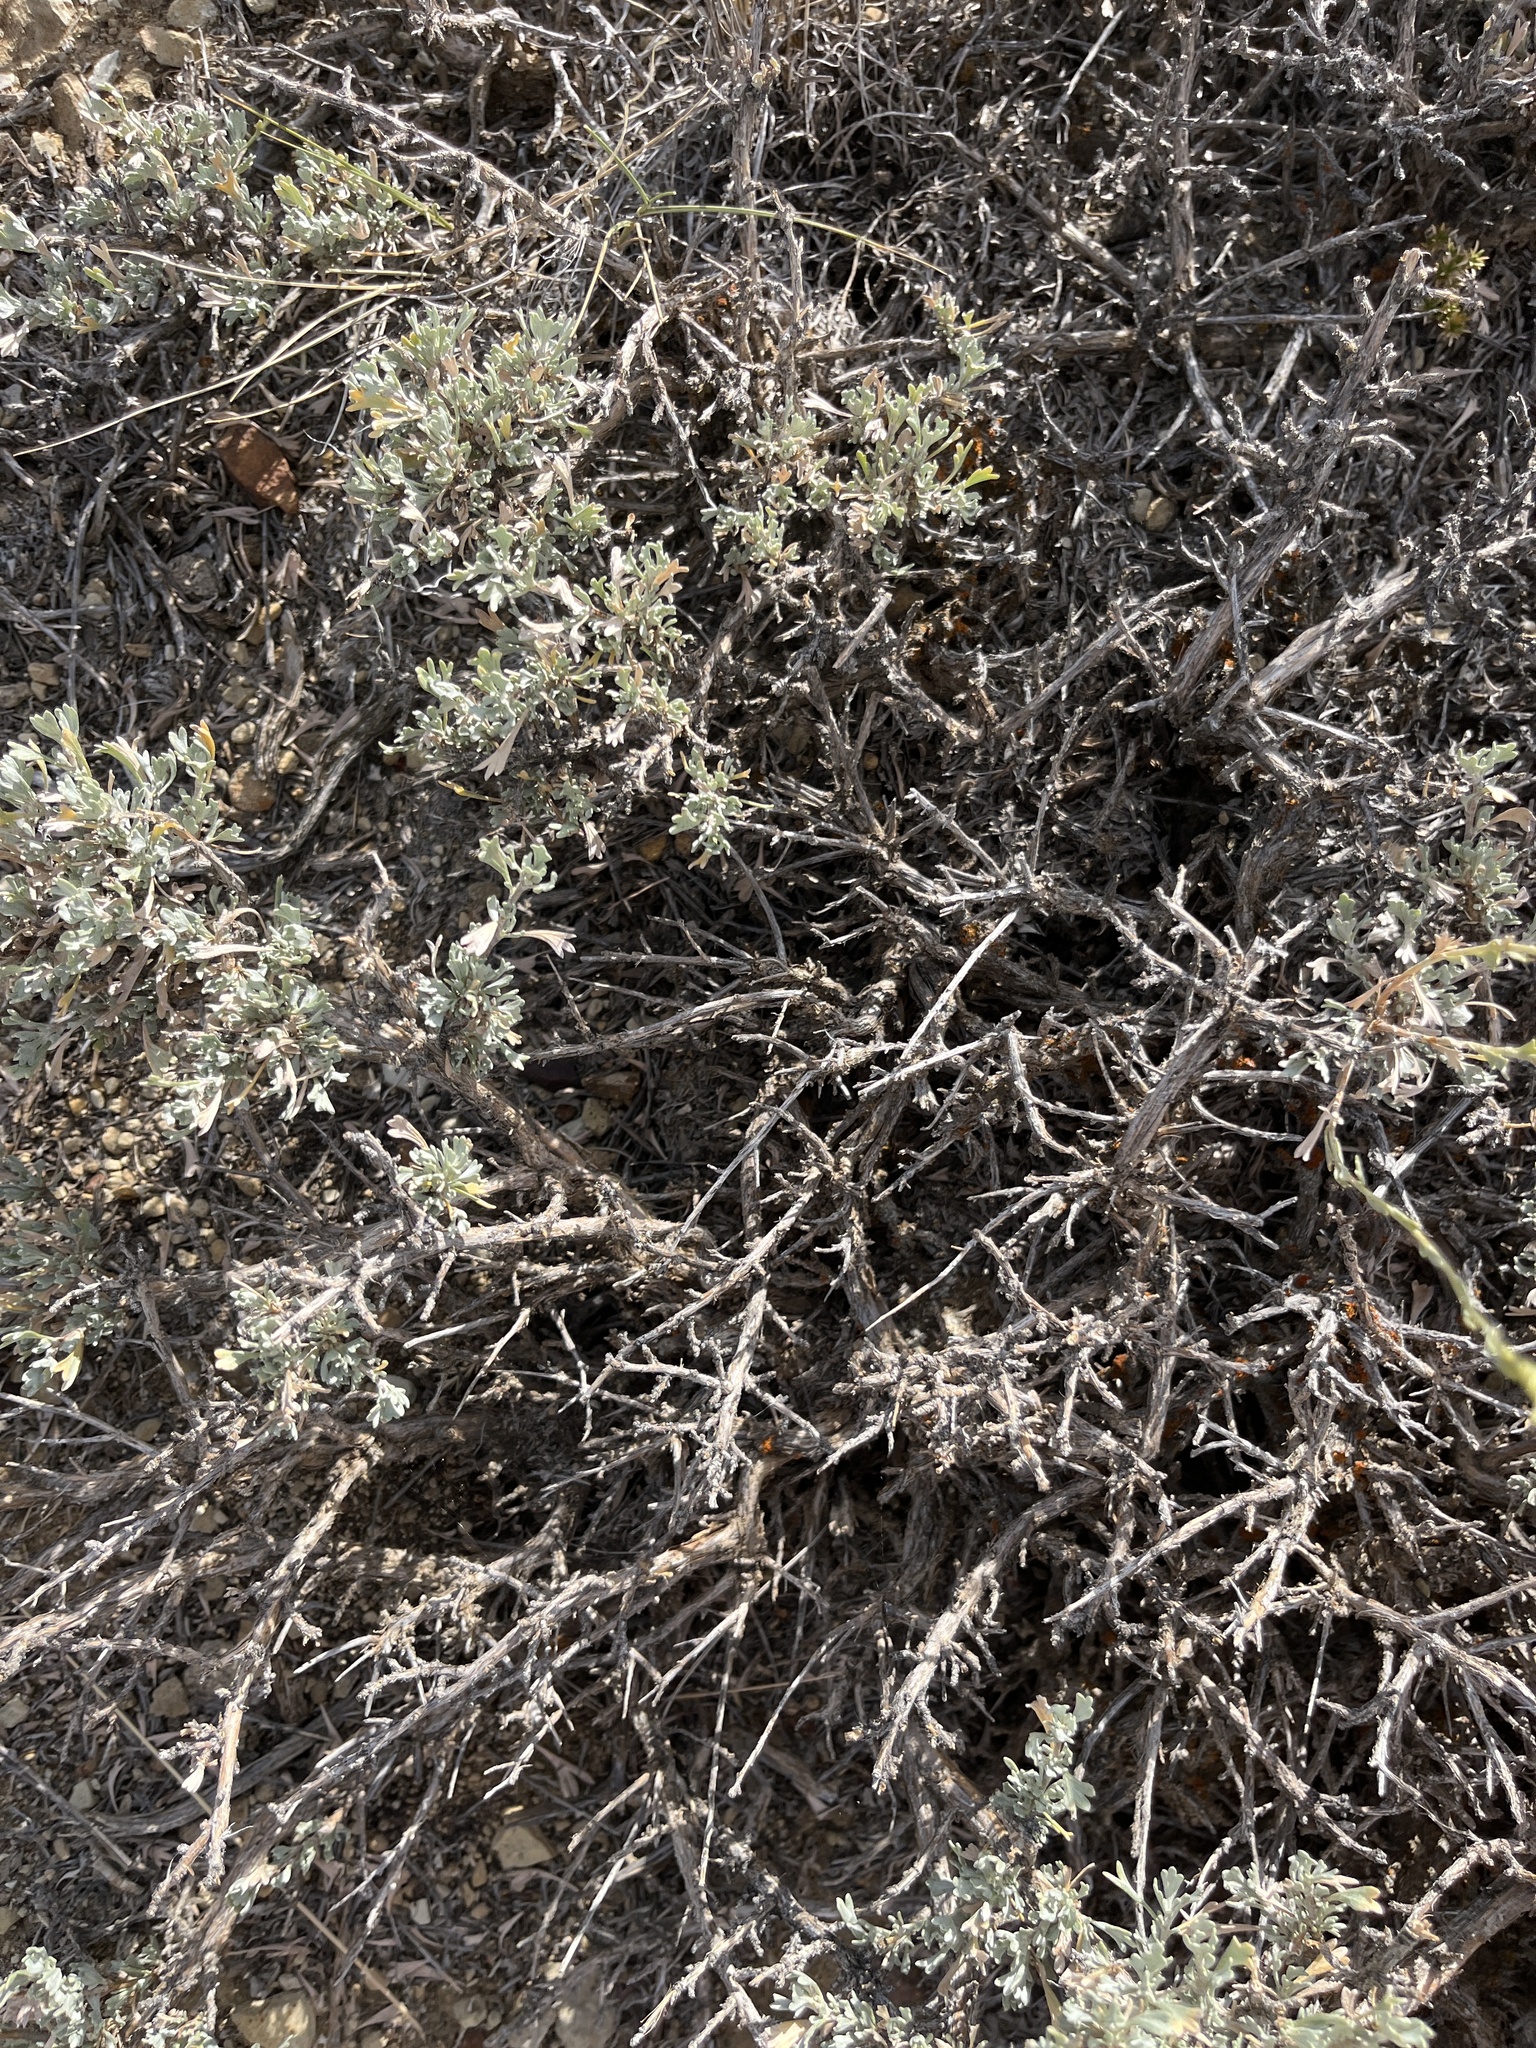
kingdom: Plantae
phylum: Tracheophyta
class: Magnoliopsida
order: Asterales
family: Asteraceae
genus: Artemisia
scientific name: Artemisia tridentata
